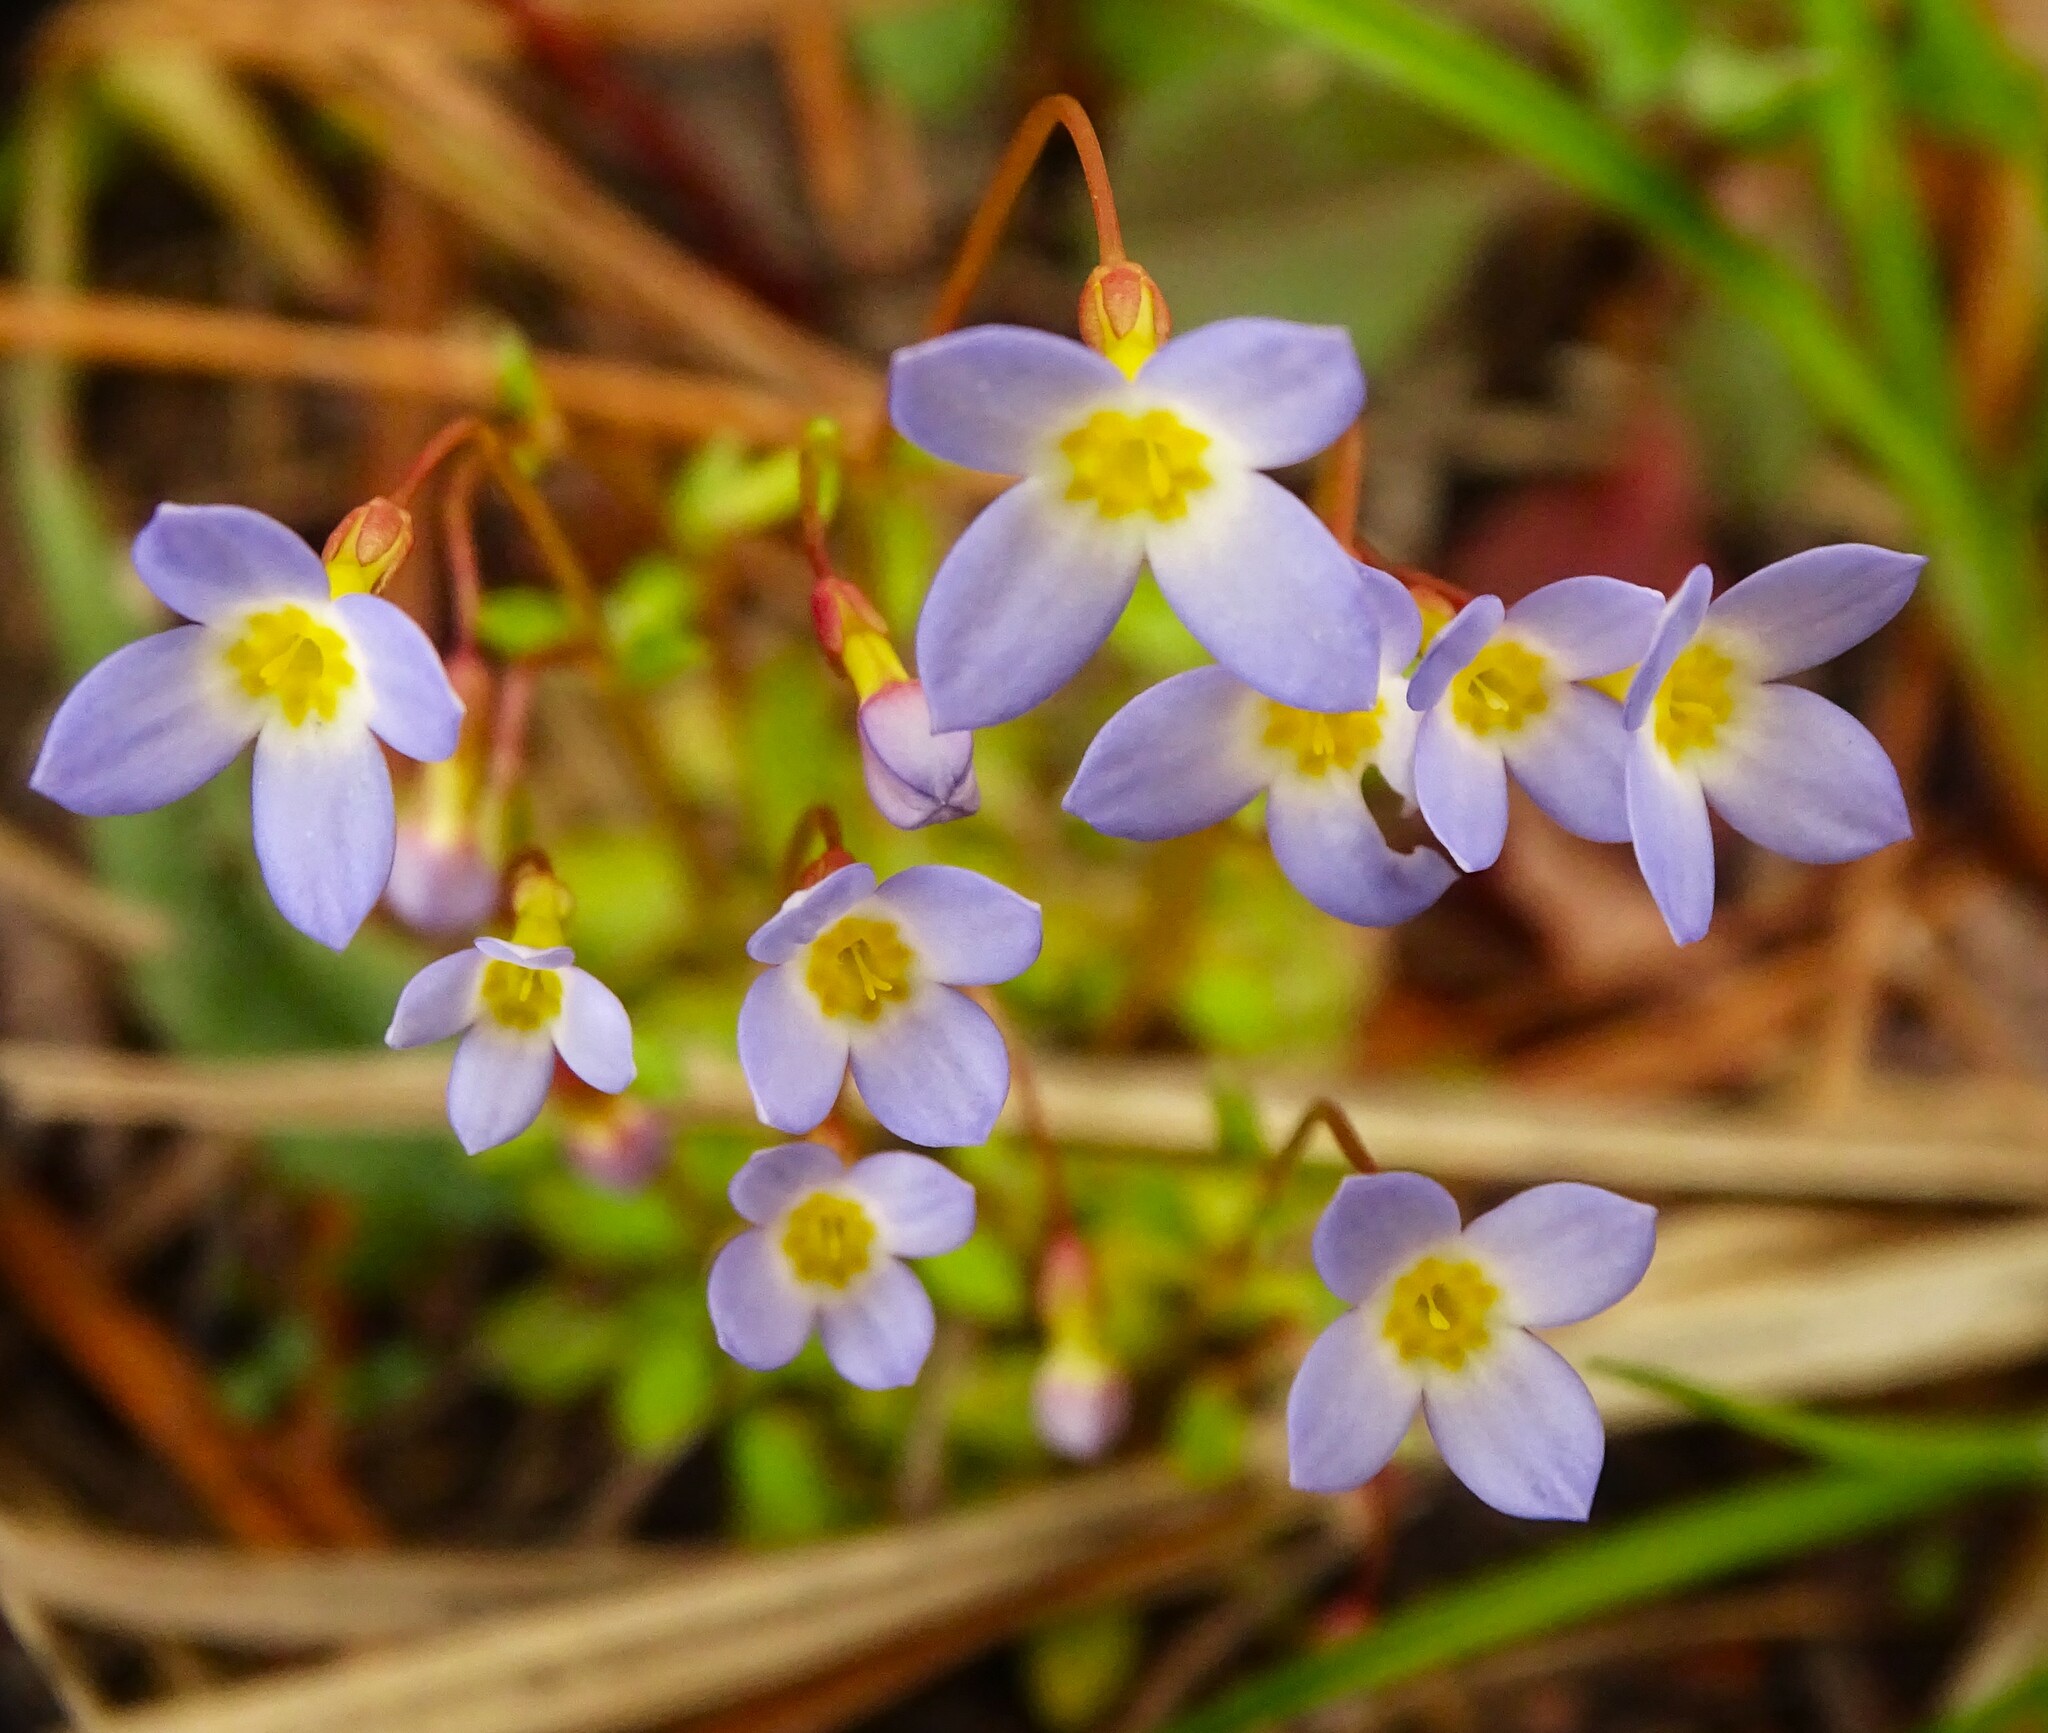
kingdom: Plantae
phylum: Tracheophyta
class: Magnoliopsida
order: Gentianales
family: Rubiaceae
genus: Houstonia
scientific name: Houstonia caerulea
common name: Bluets
